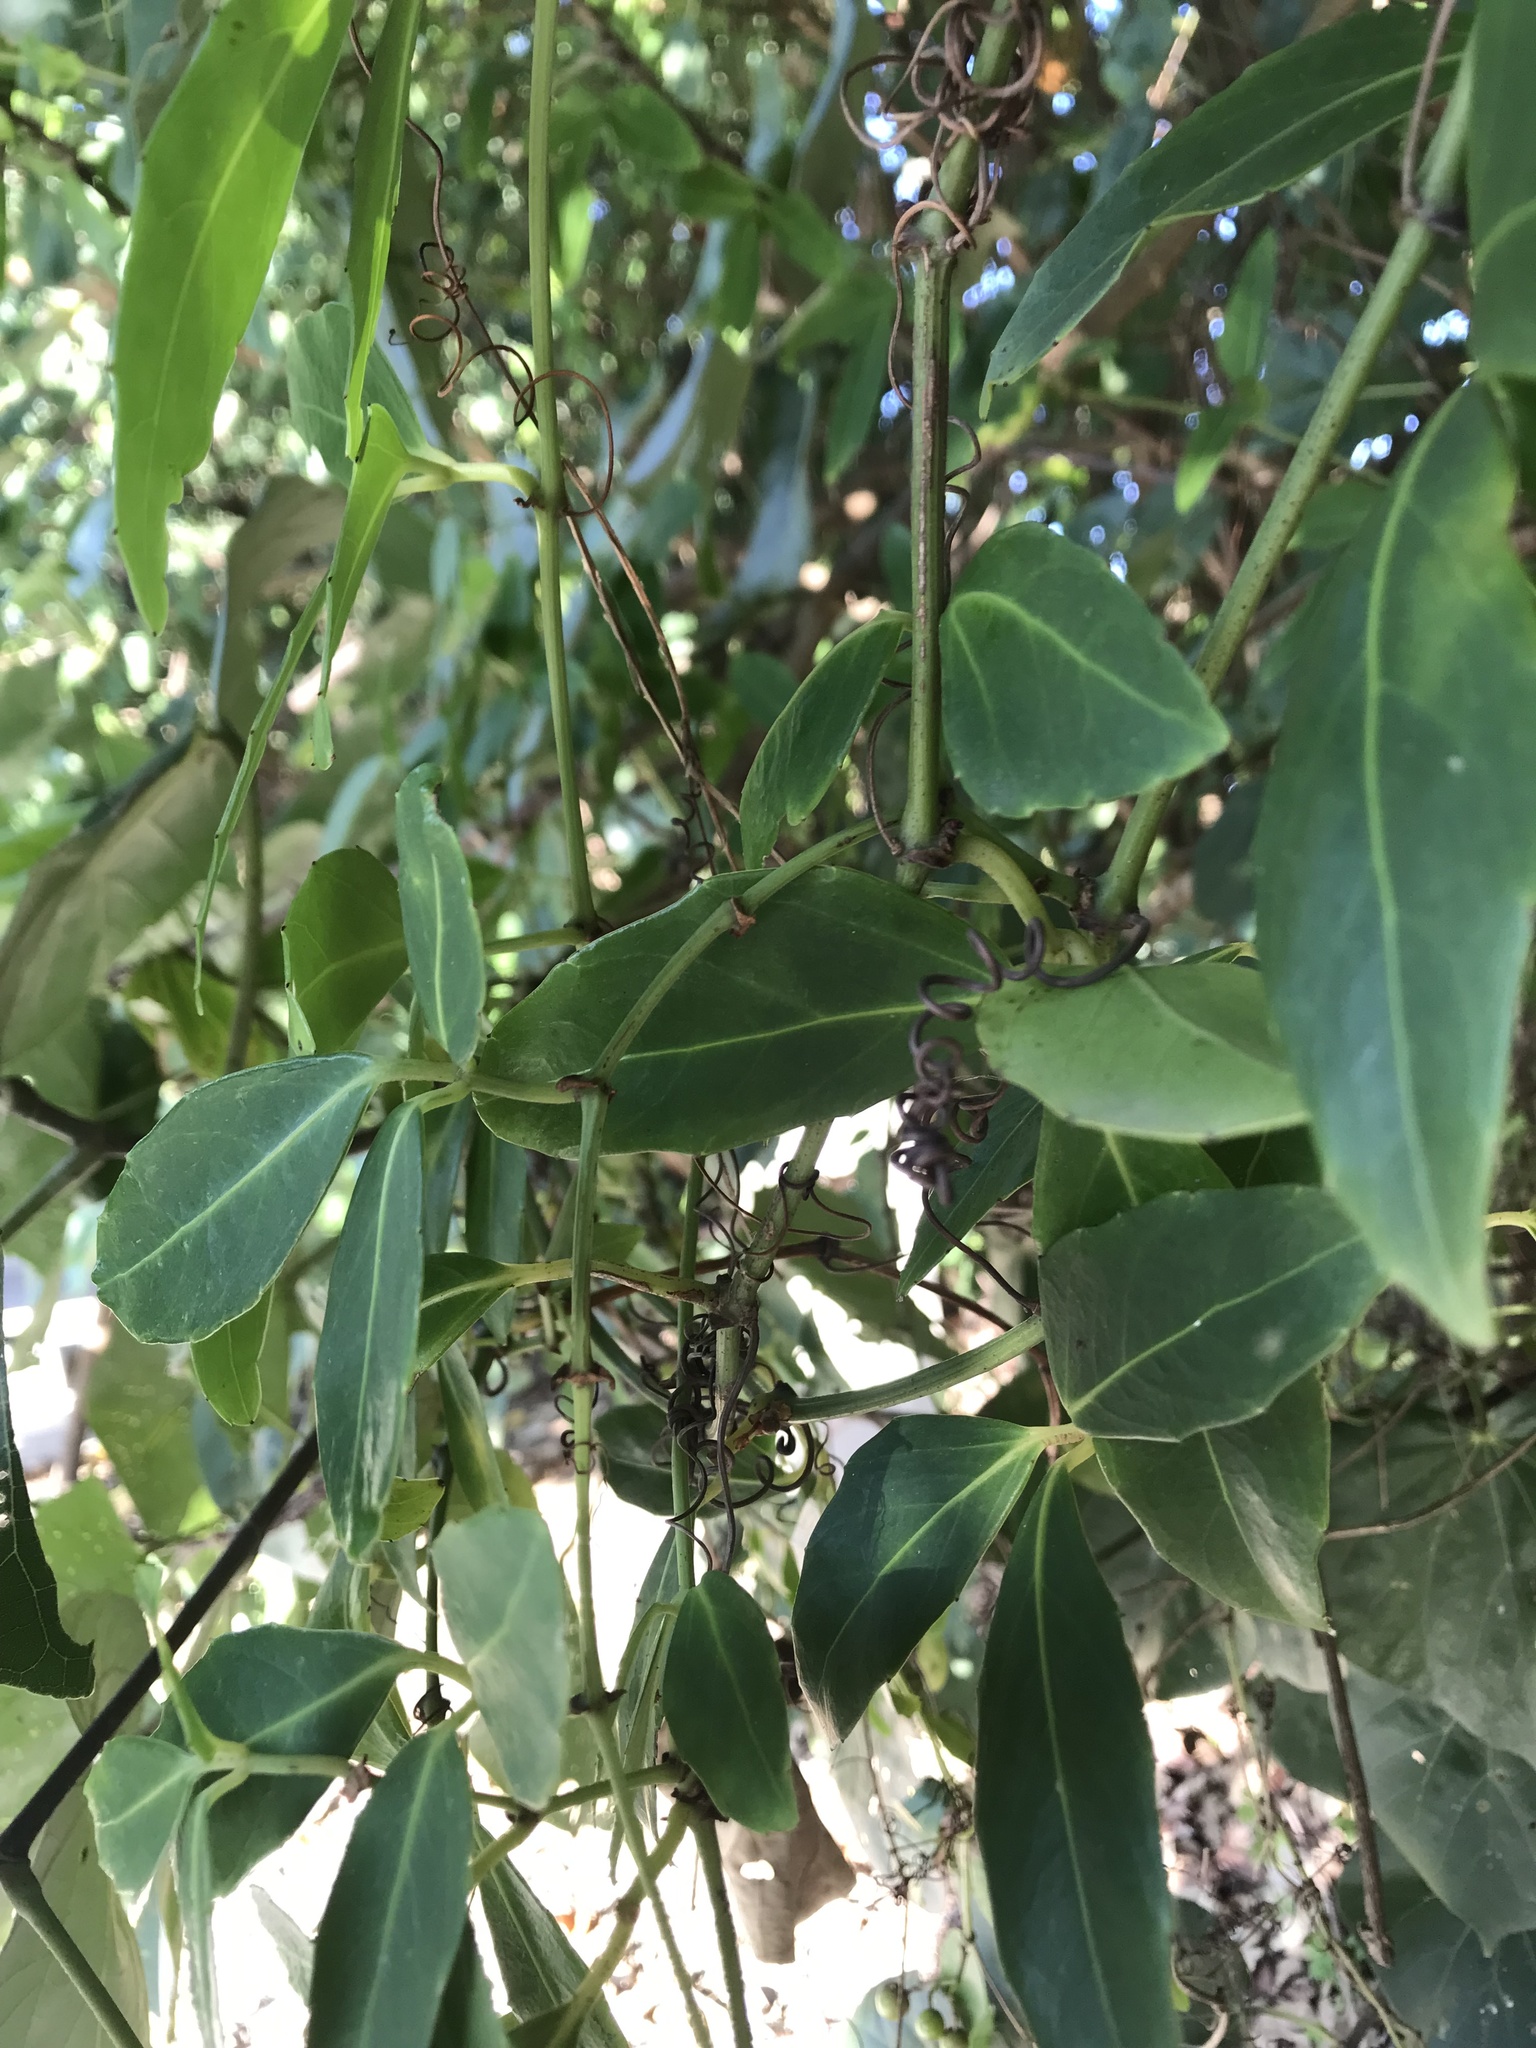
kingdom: Plantae
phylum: Tracheophyta
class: Magnoliopsida
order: Vitales
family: Vitaceae
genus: Tetrastigma
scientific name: Tetrastigma formosanum
